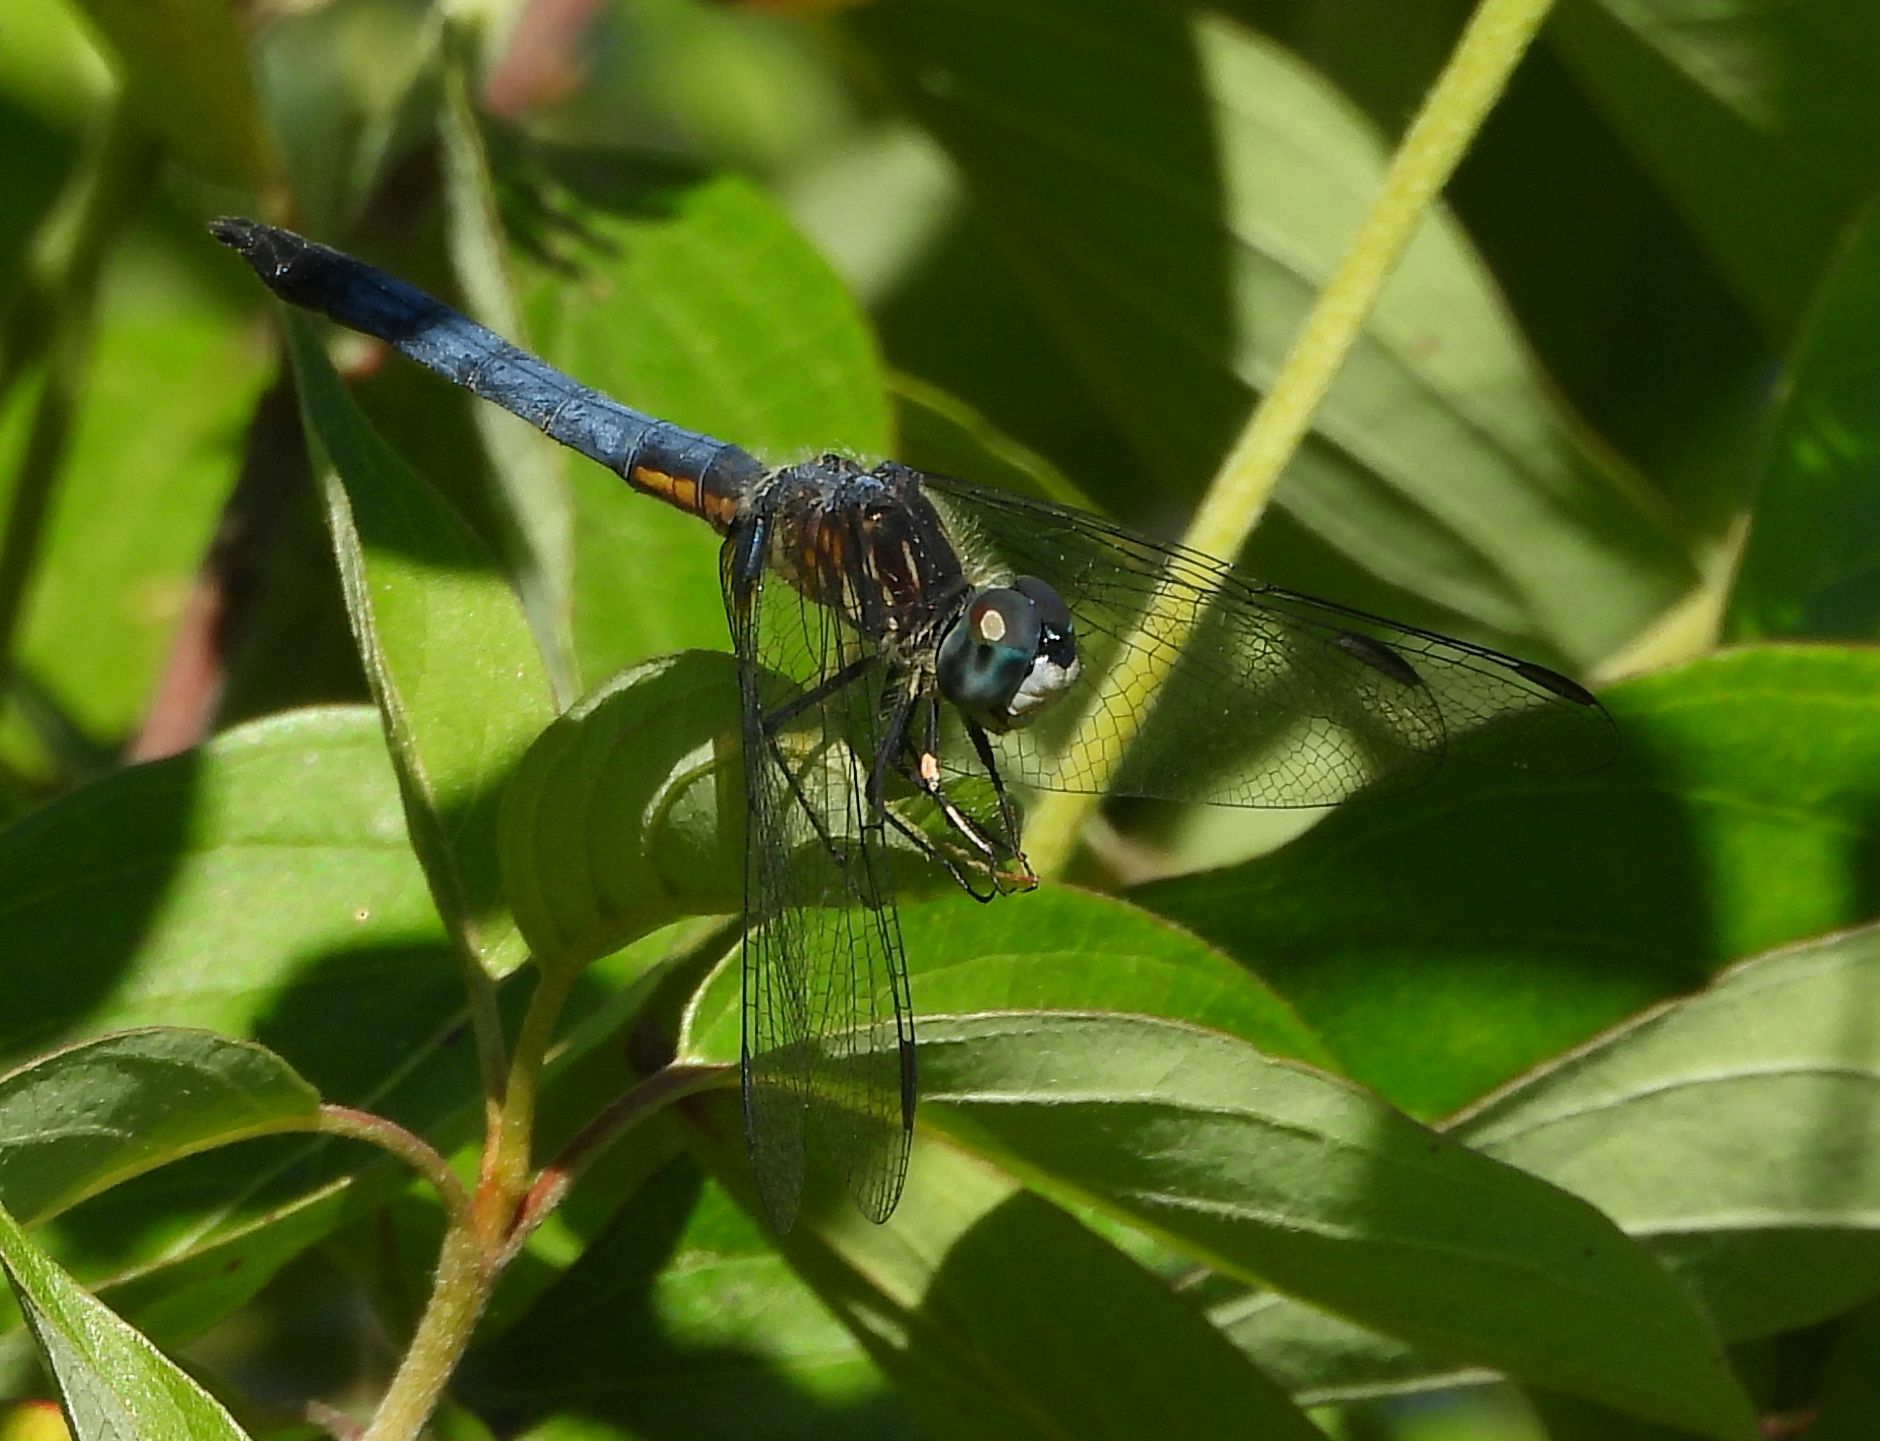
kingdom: Animalia
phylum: Arthropoda
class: Insecta
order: Odonata
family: Libellulidae
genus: Pachydiplax
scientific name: Pachydiplax longipennis
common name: Blue dasher
